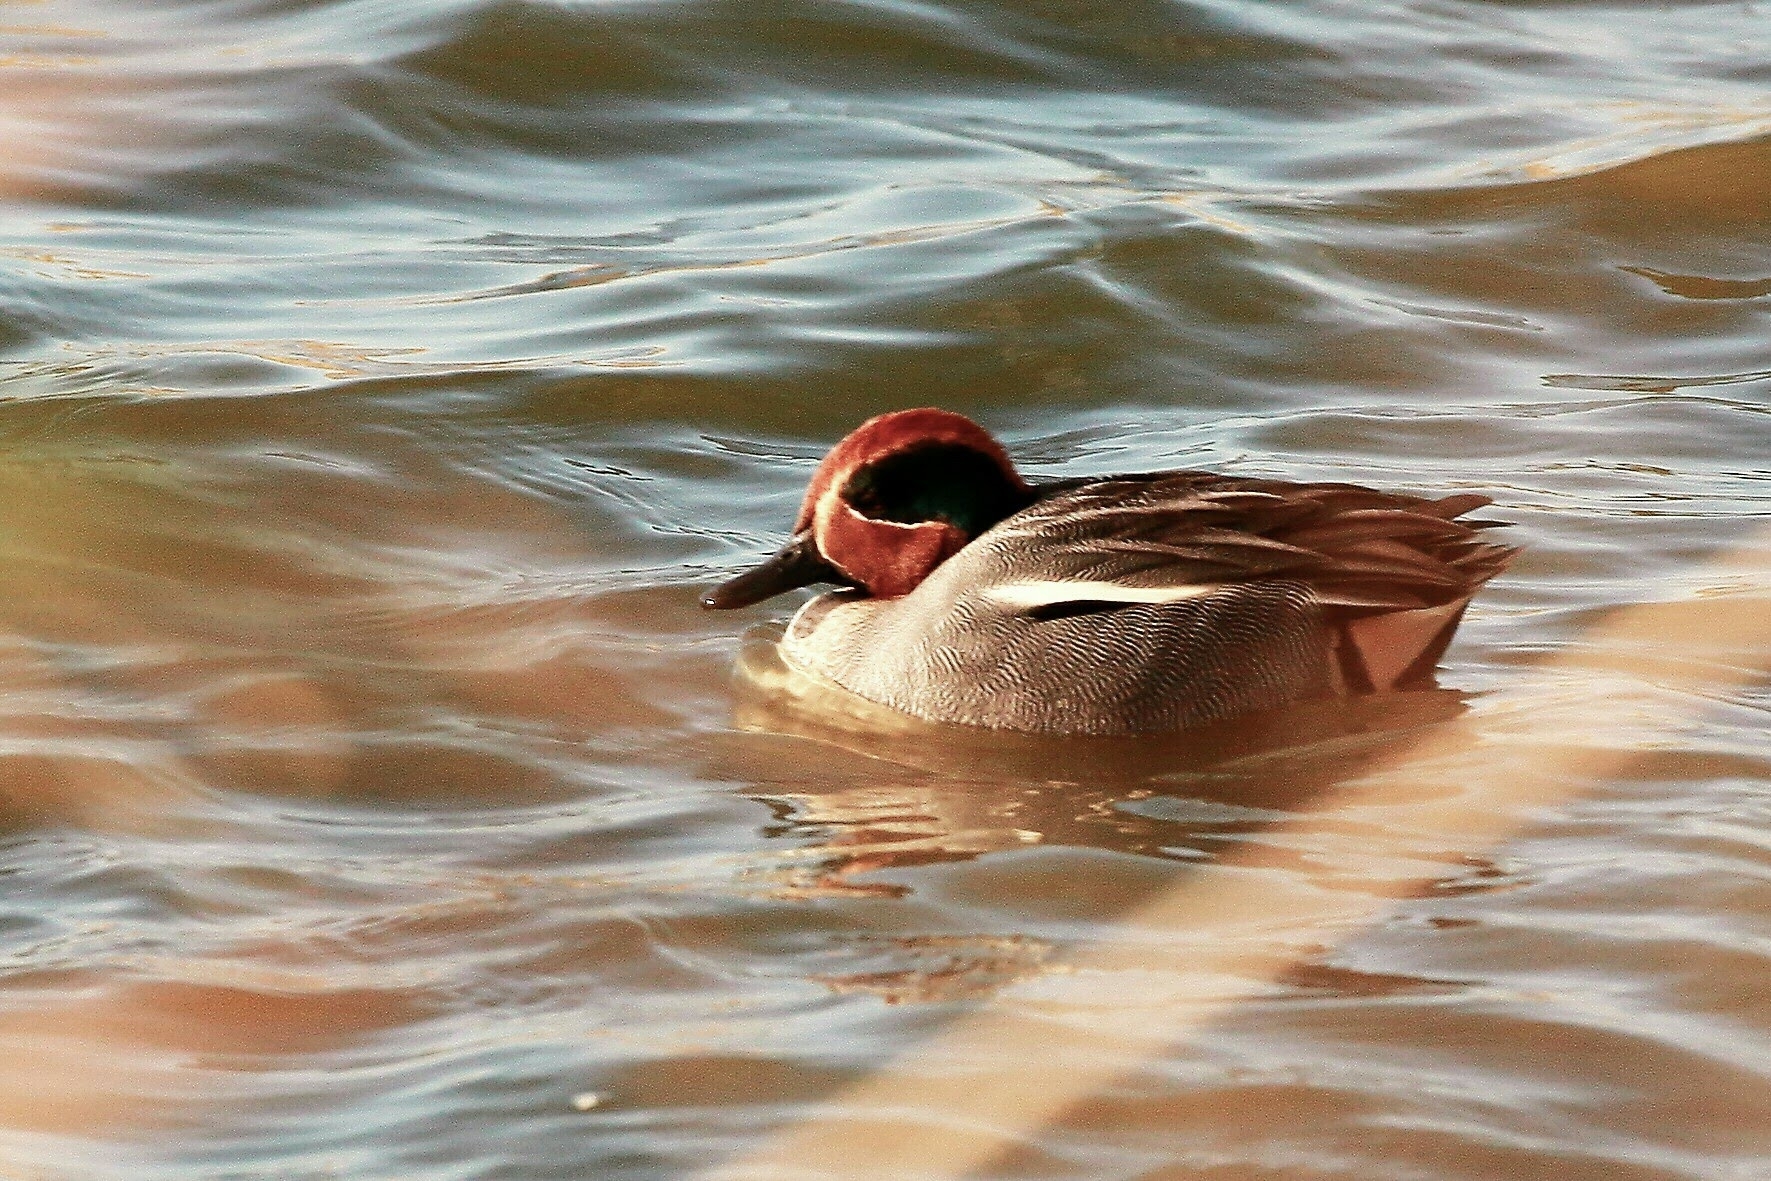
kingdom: Animalia
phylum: Chordata
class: Aves
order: Anseriformes
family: Anatidae
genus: Anas
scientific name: Anas crecca
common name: Eurasian teal
